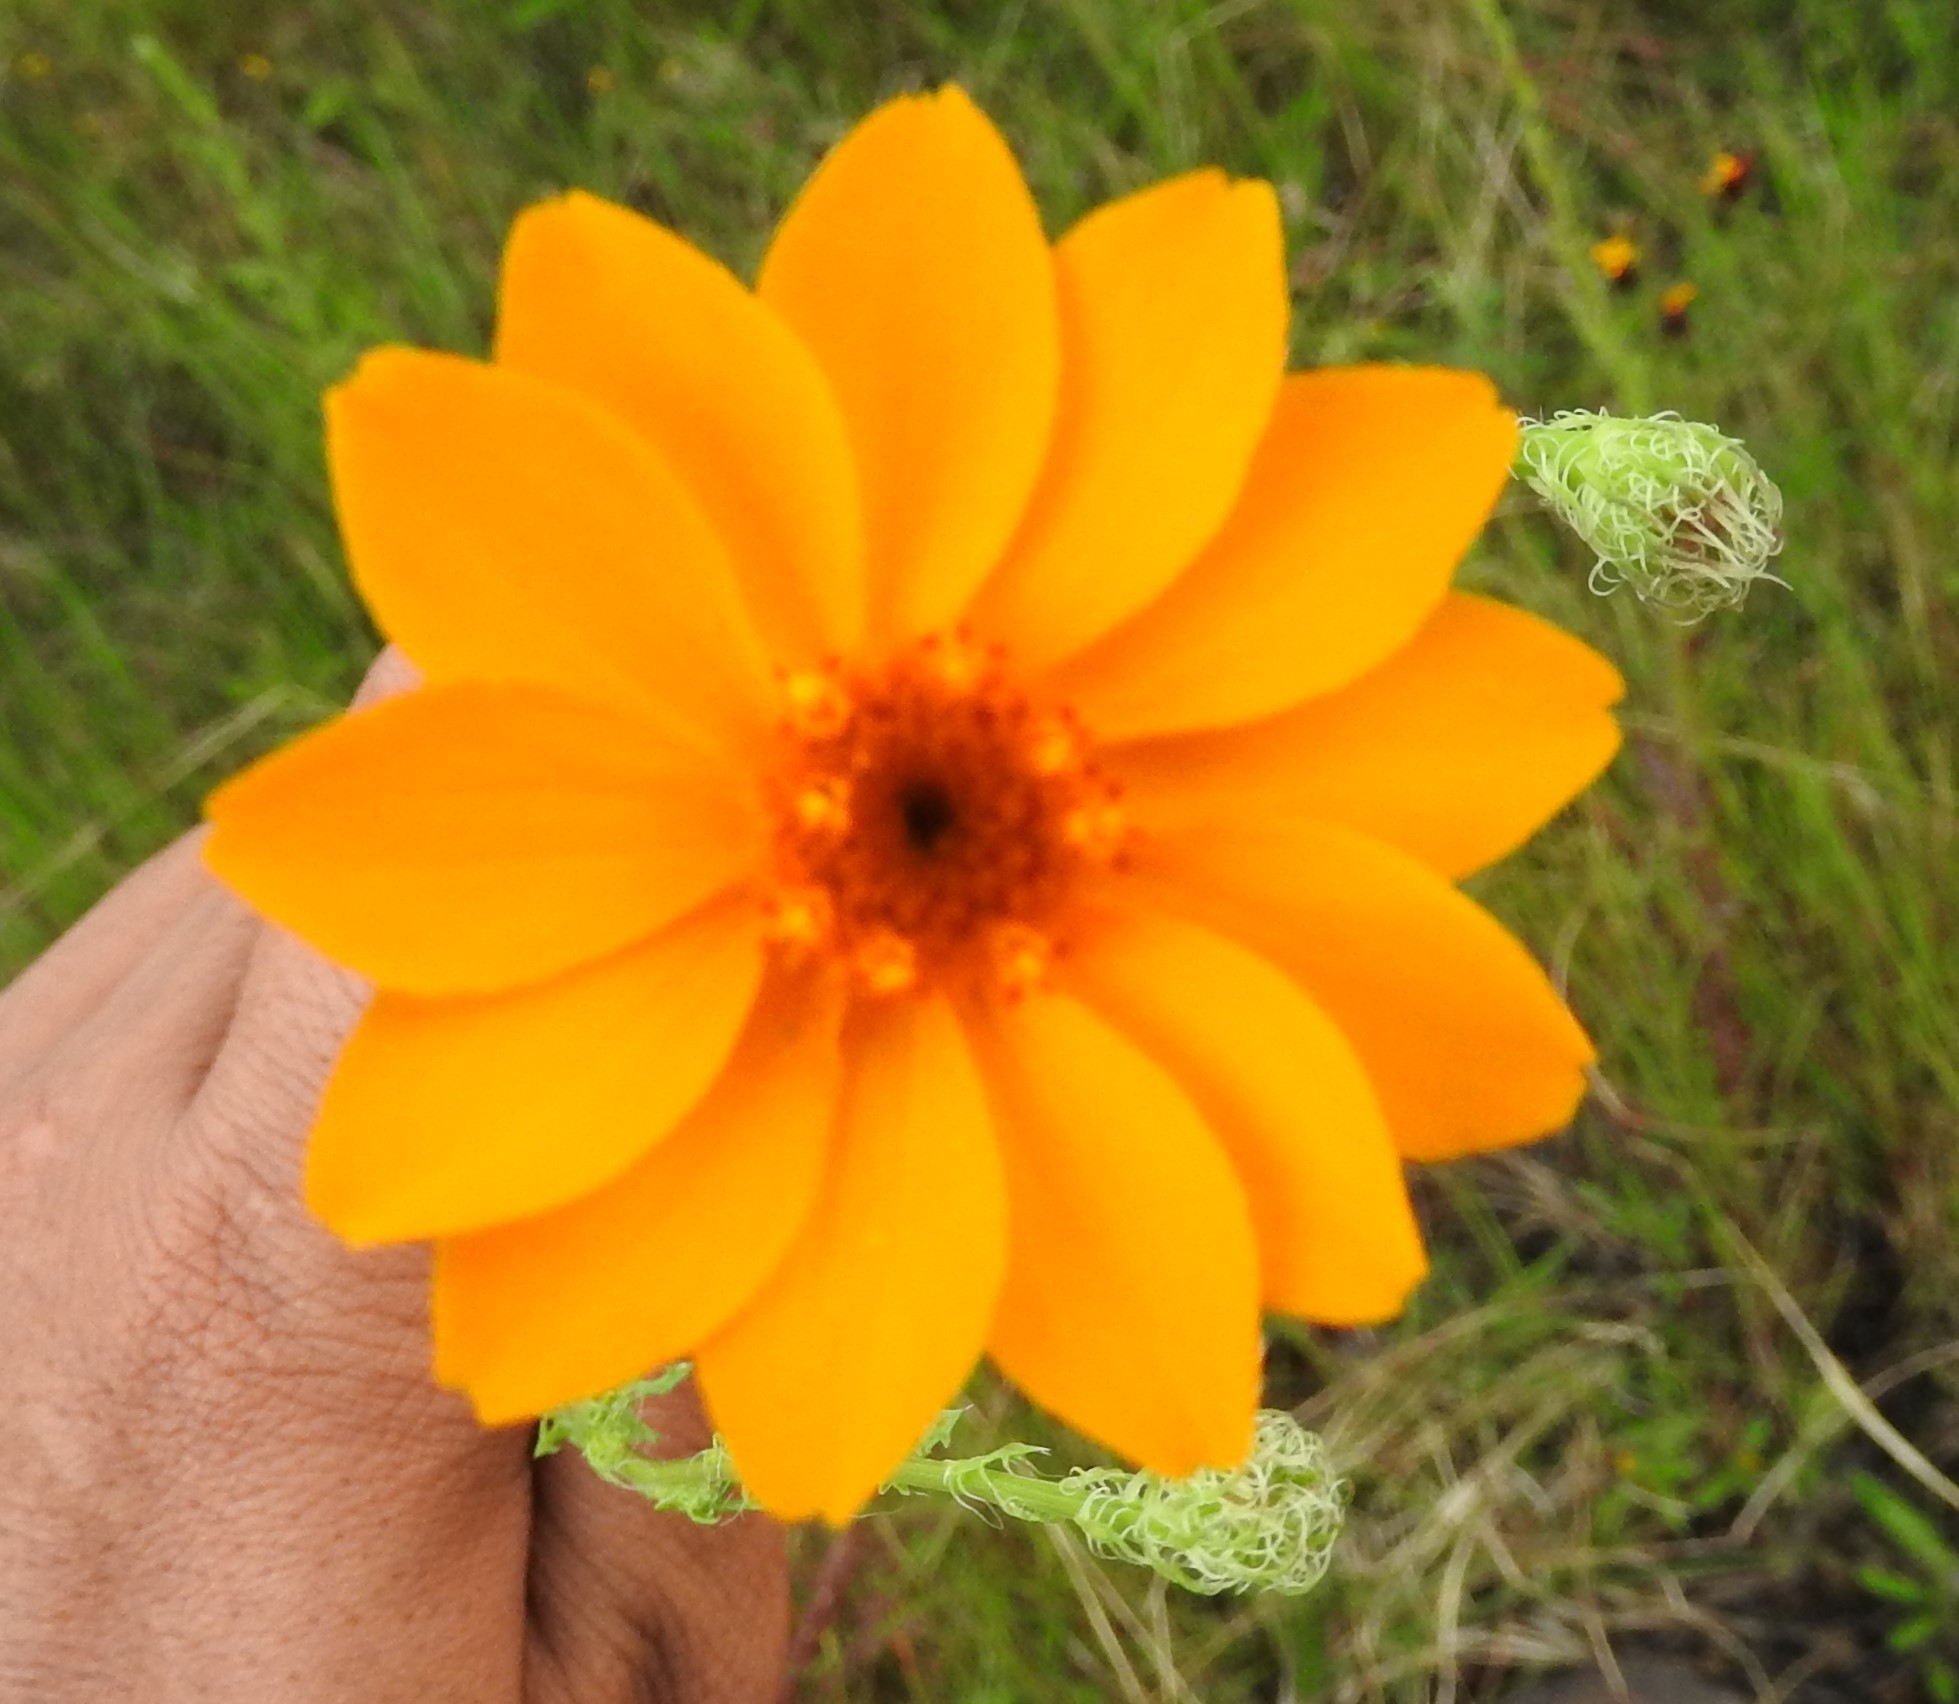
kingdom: Plantae
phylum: Tracheophyta
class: Magnoliopsida
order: Asterales
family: Asteraceae
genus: Adenophyllum
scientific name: Adenophyllum cancellatum
